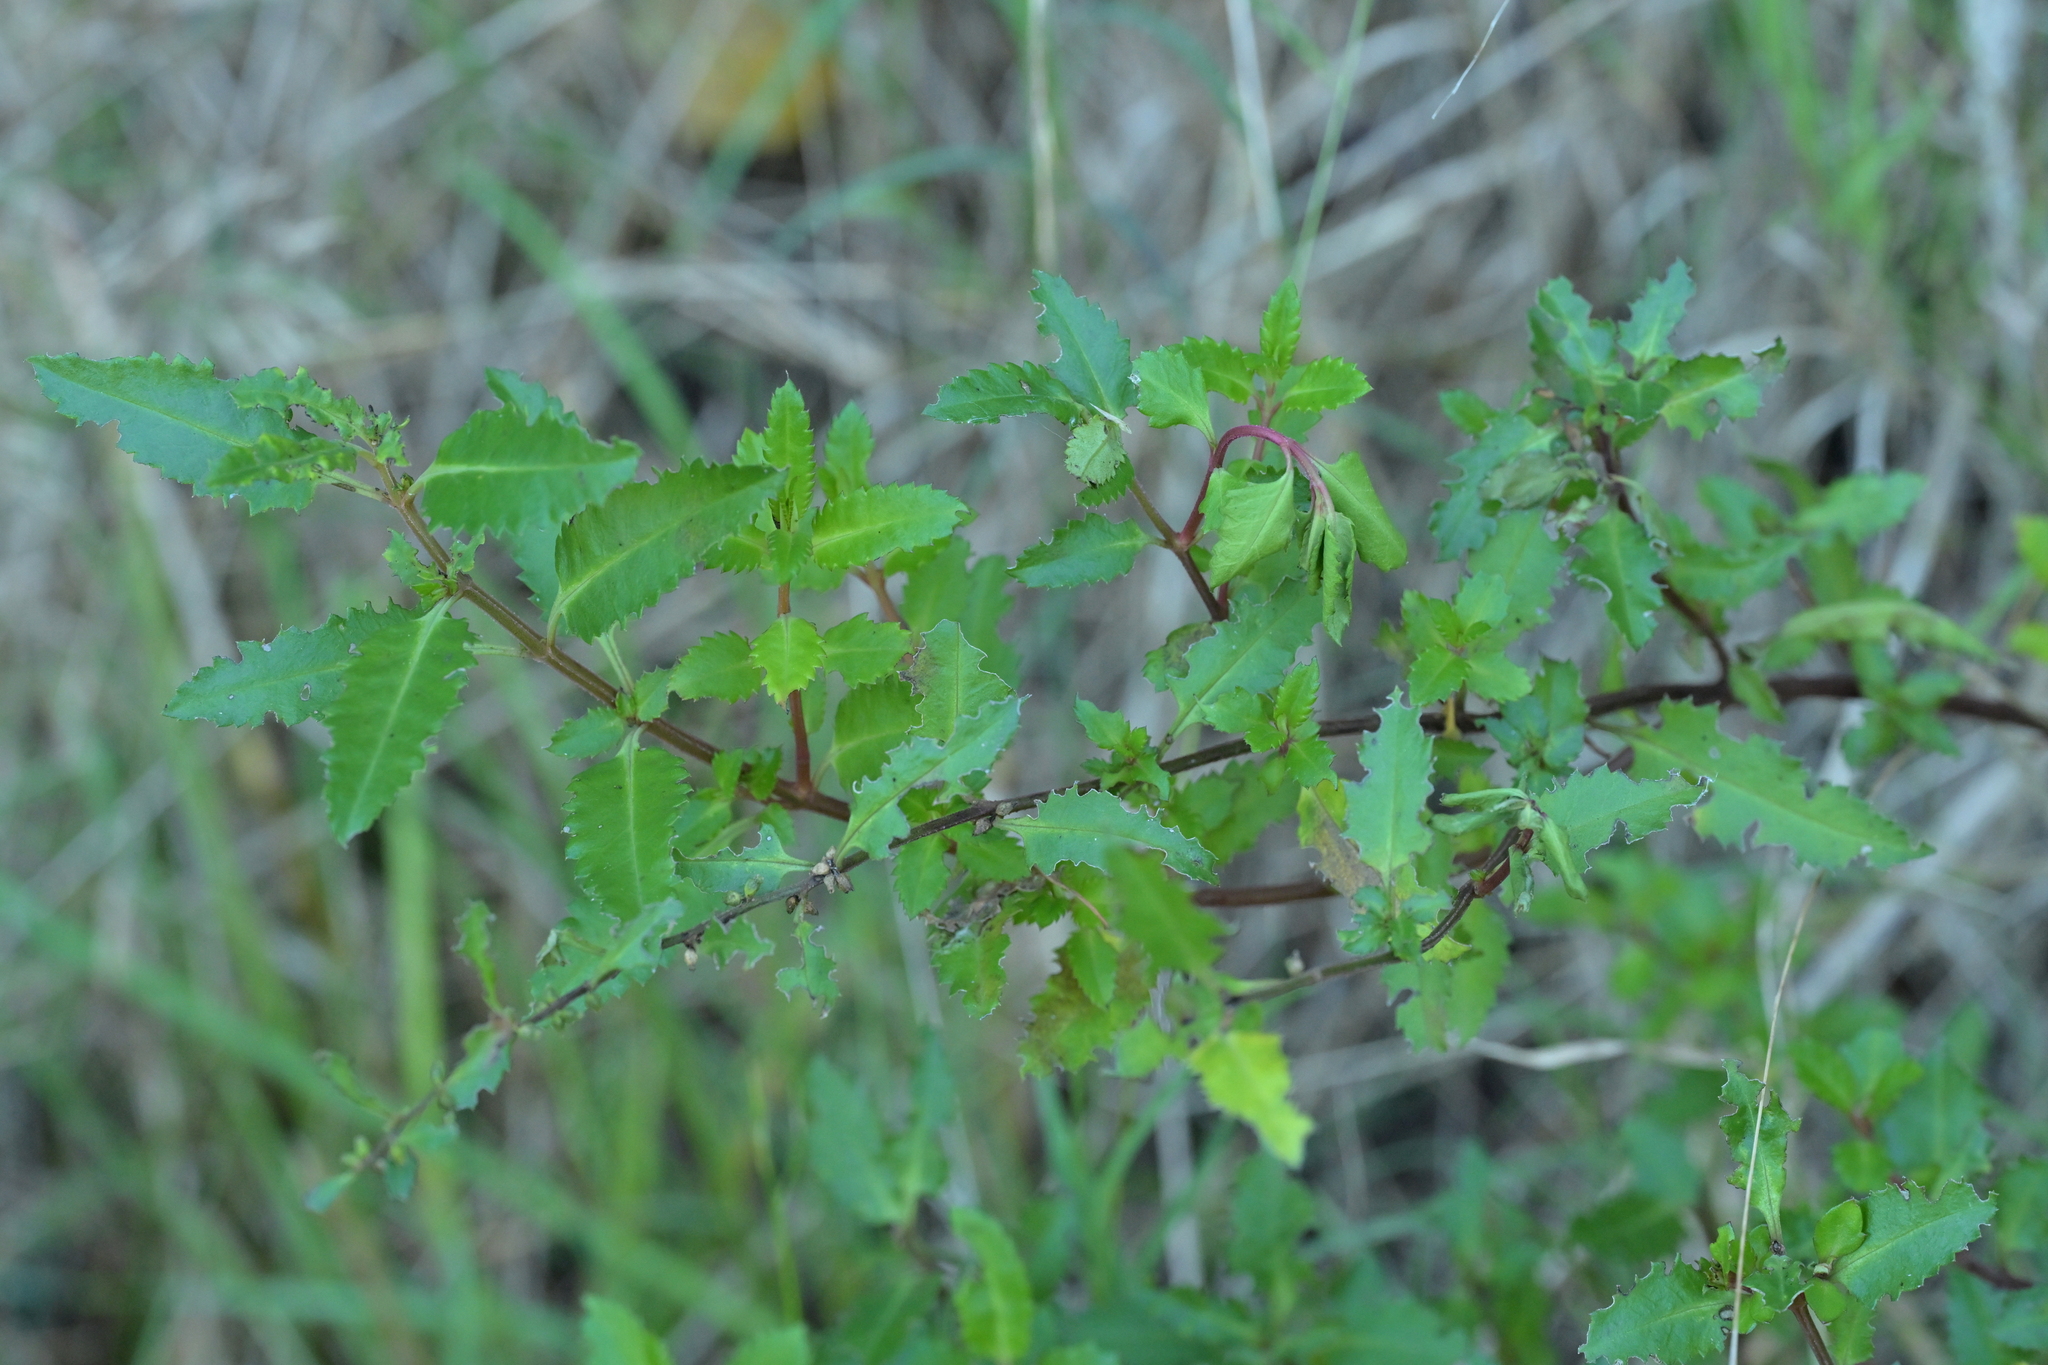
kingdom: Plantae
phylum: Tracheophyta
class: Magnoliopsida
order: Saxifragales
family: Haloragaceae
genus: Haloragis
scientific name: Haloragis erecta
